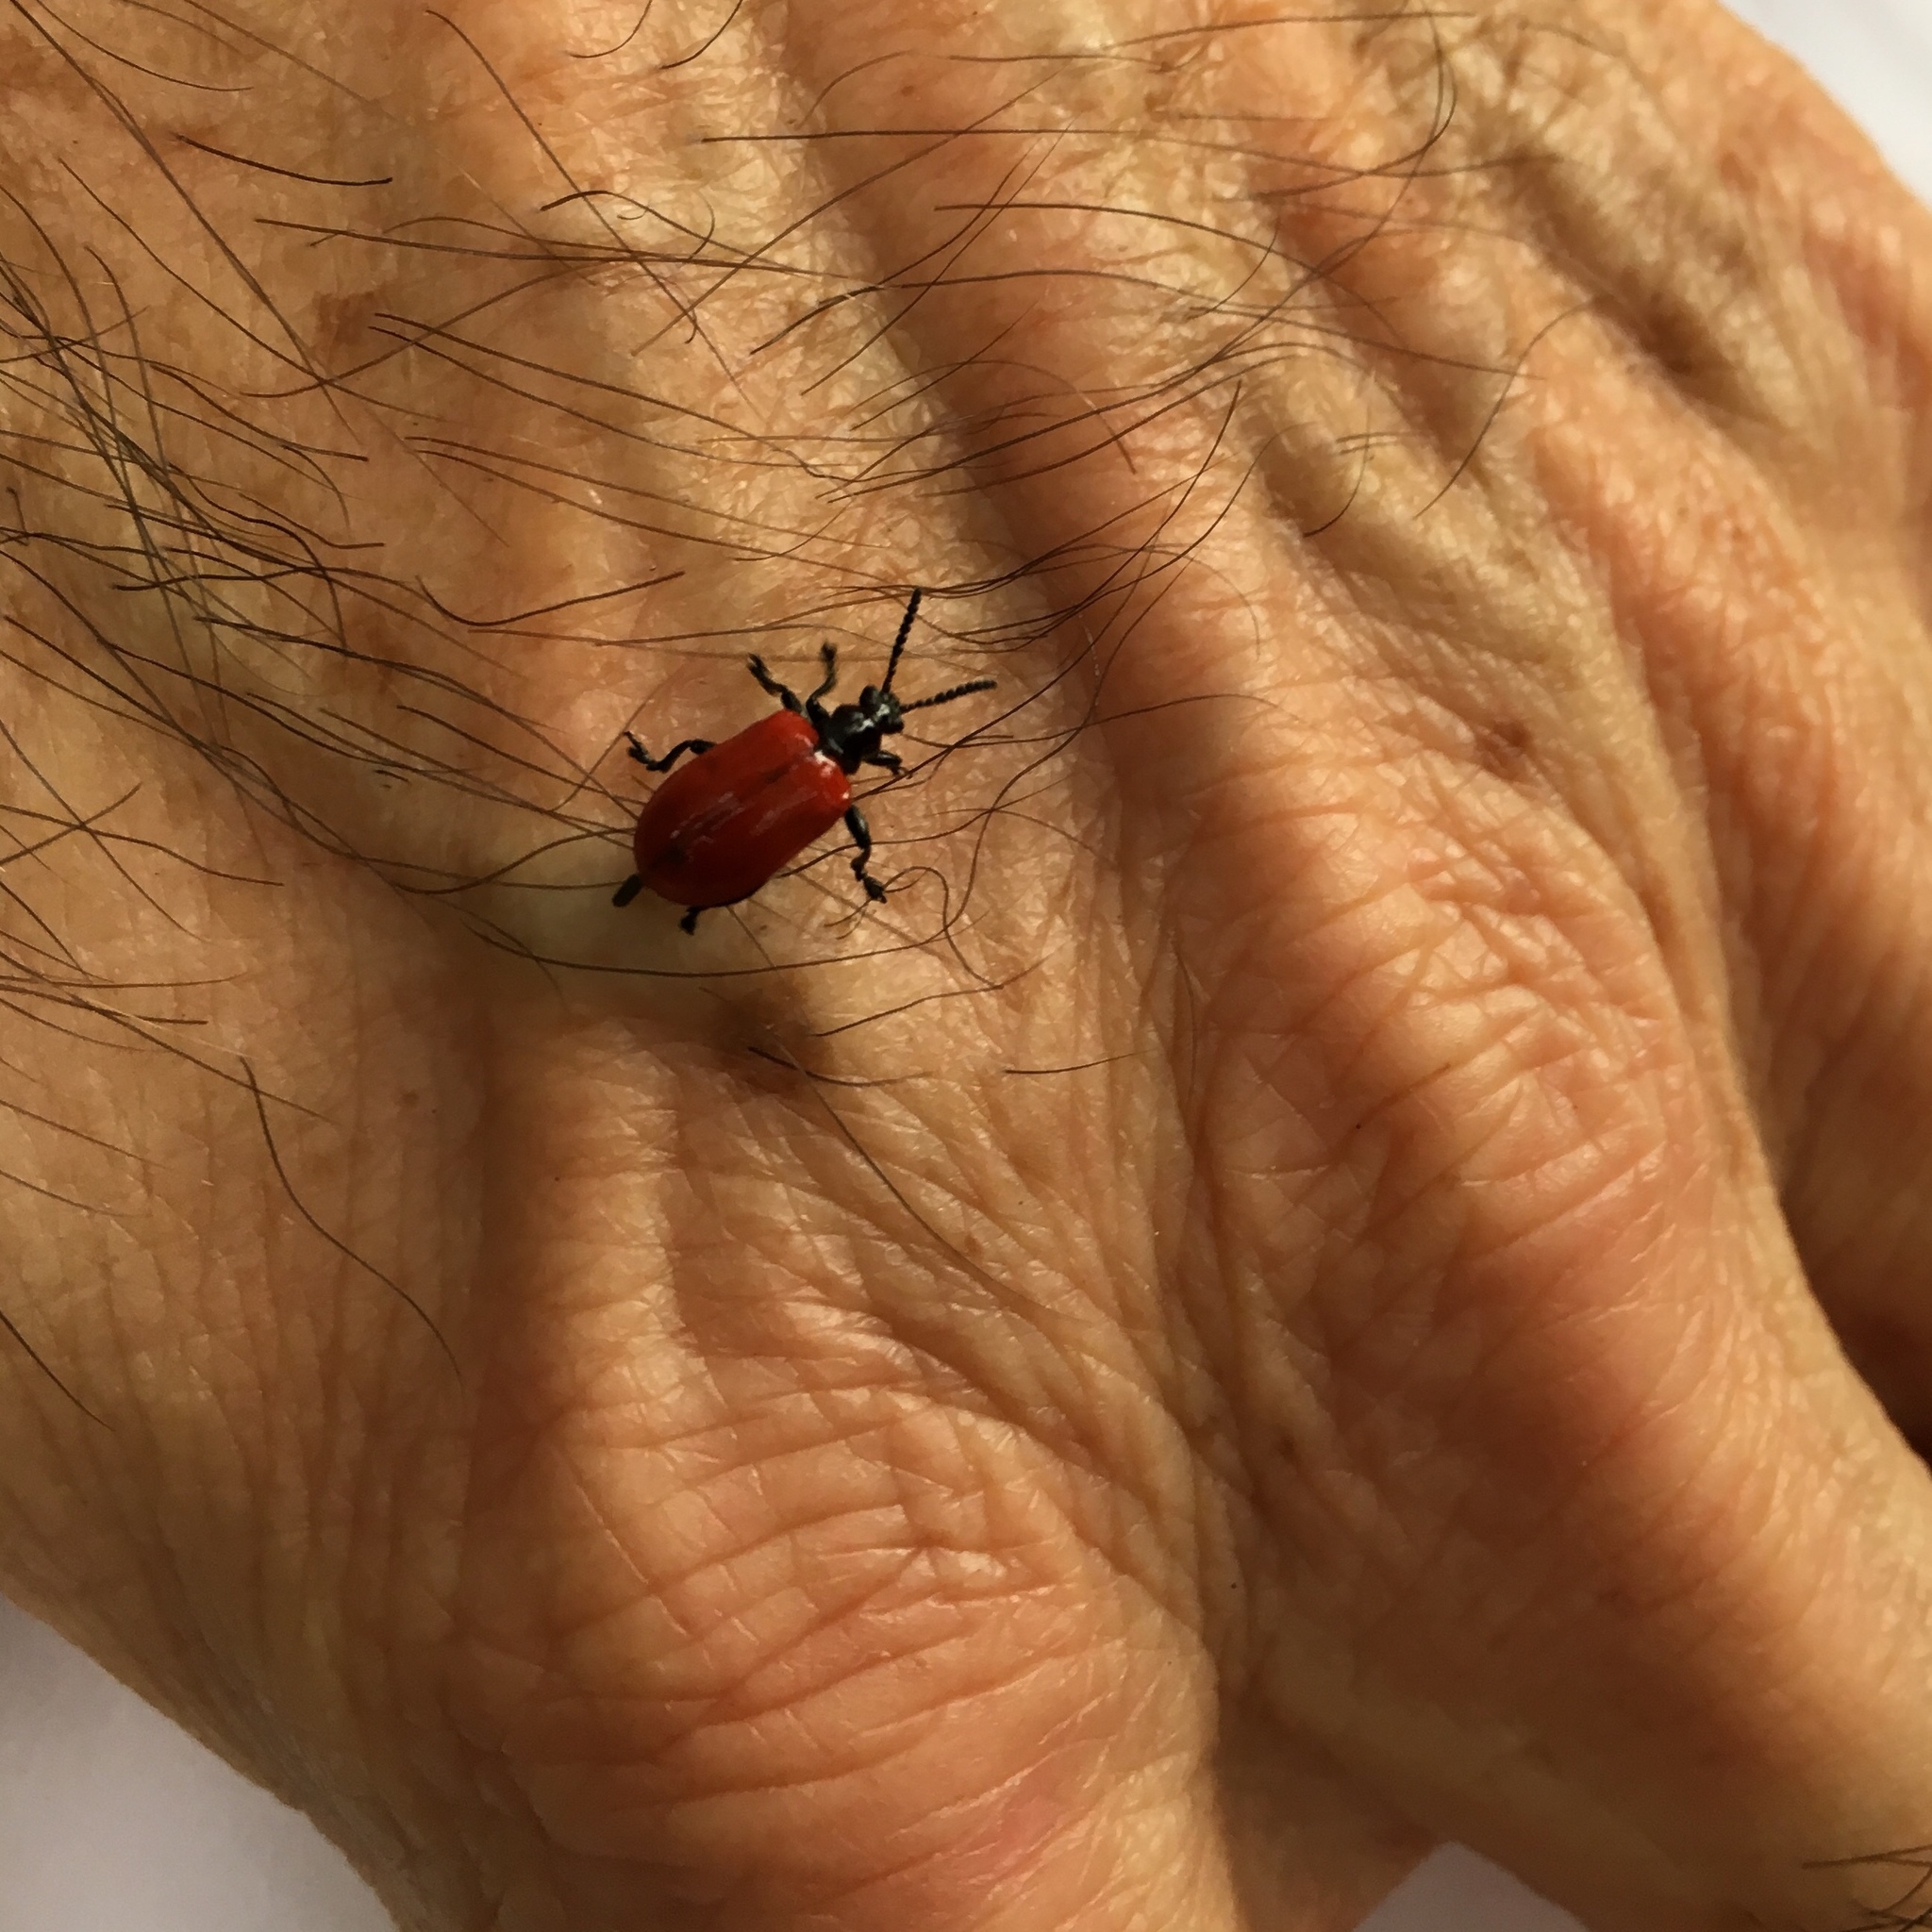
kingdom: Animalia
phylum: Arthropoda
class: Insecta
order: Coleoptera
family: Chrysomelidae
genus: Lilioceris
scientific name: Lilioceris cheni
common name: Leaf beetle
